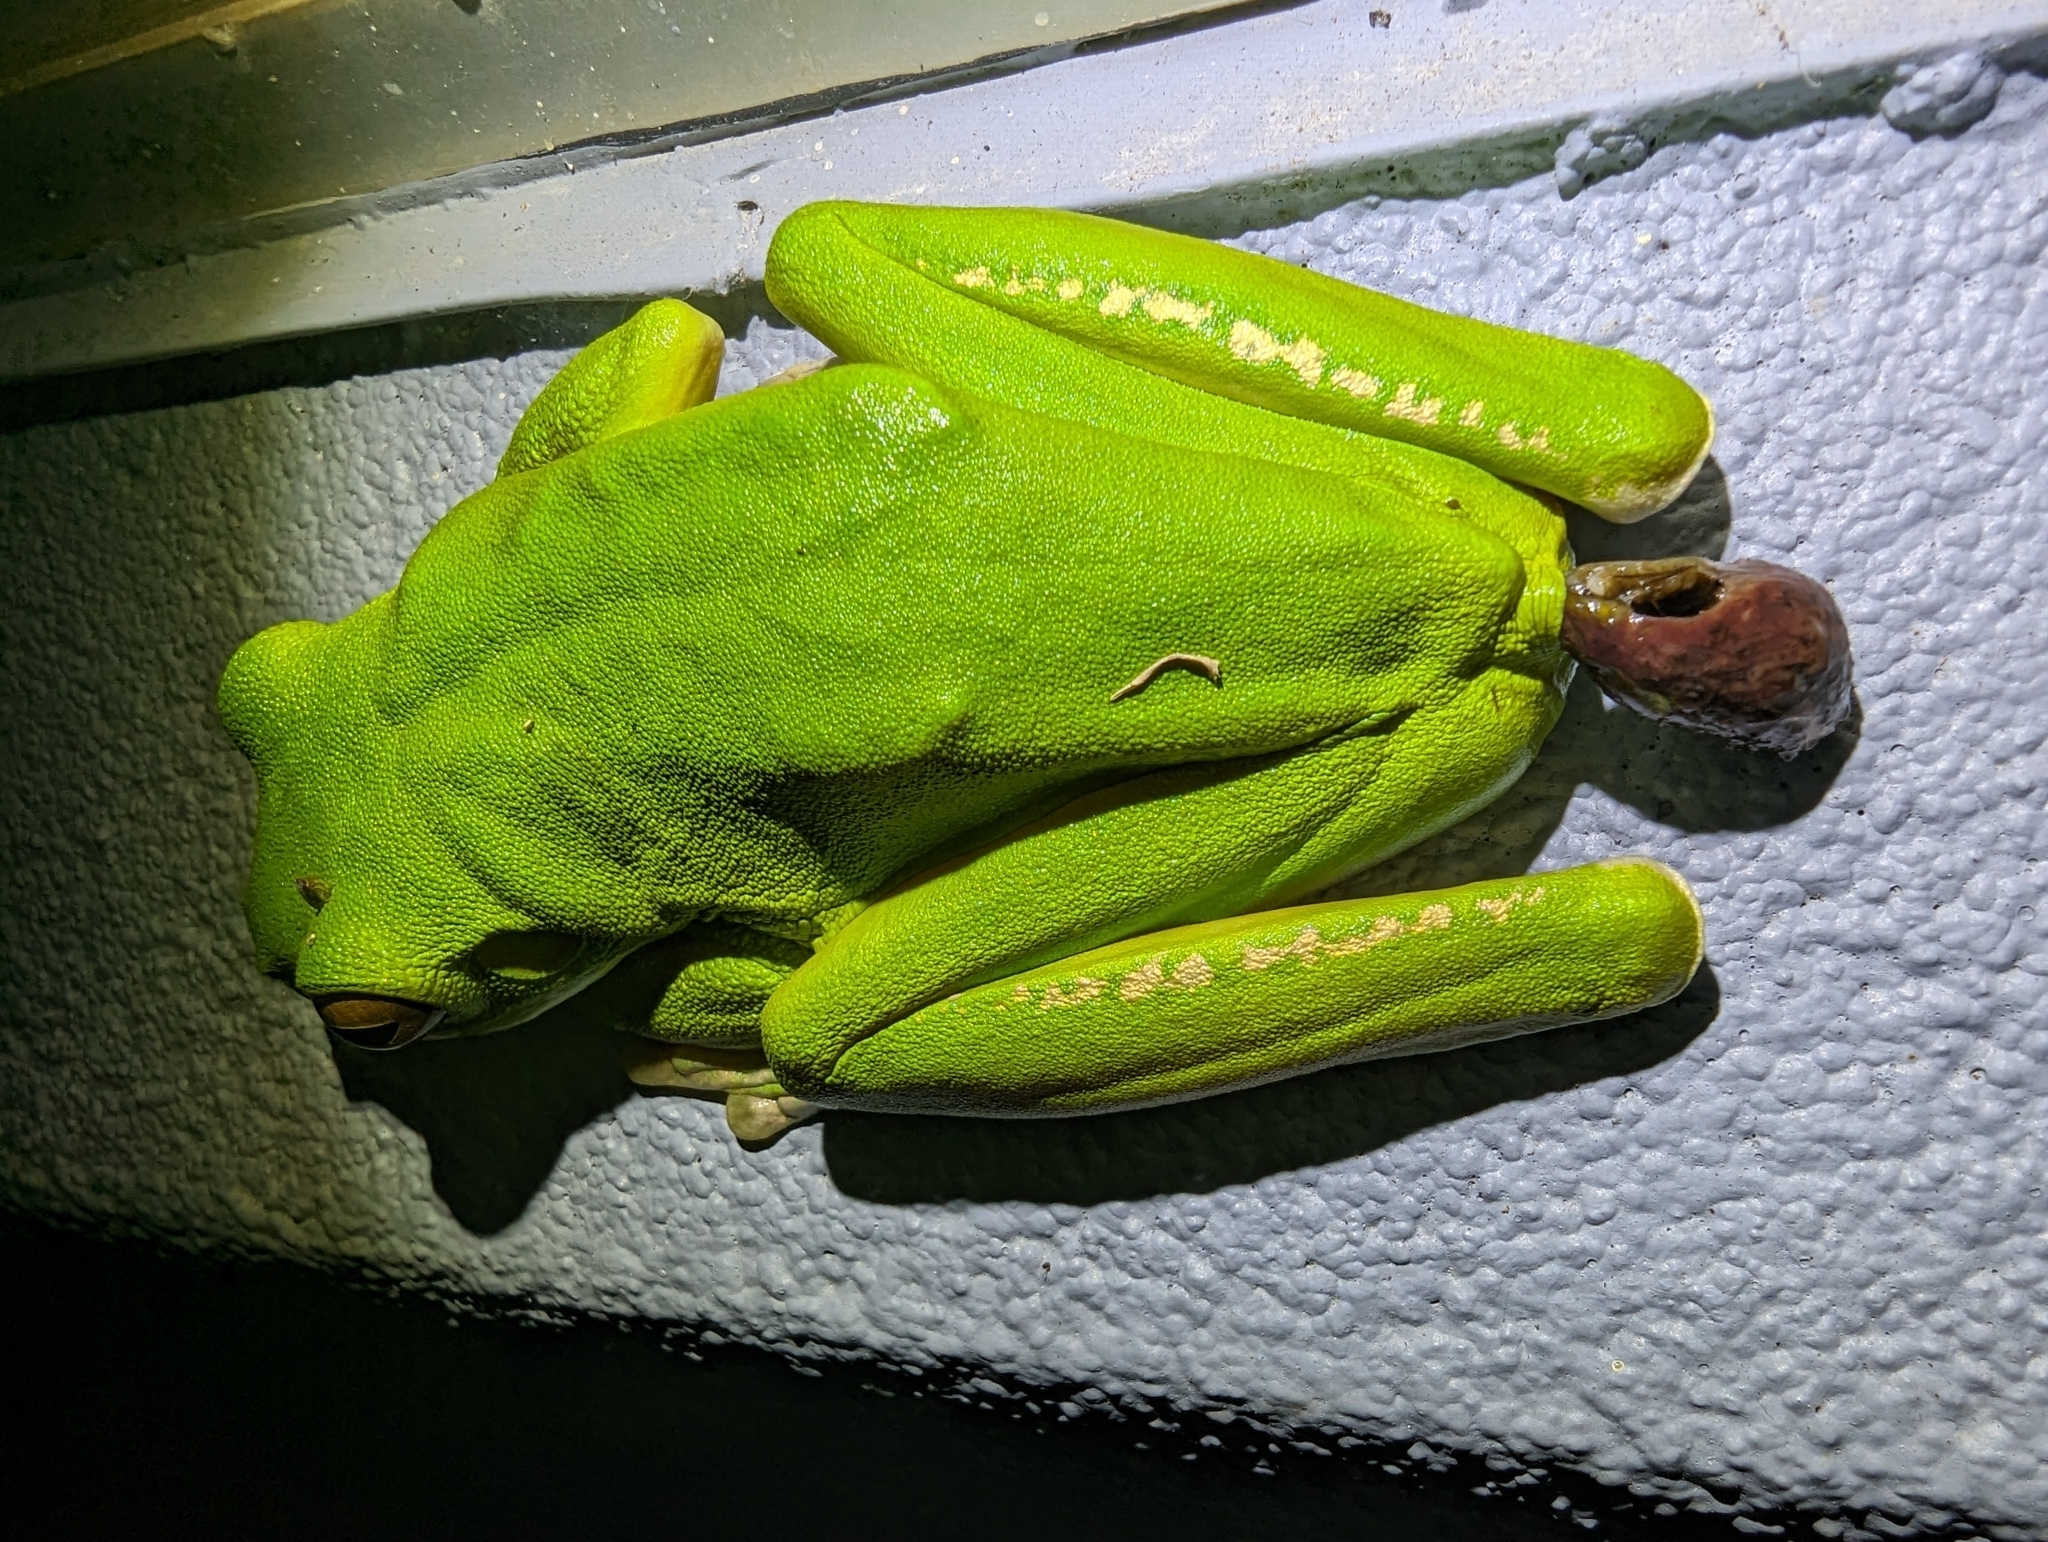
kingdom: Animalia
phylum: Chordata
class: Amphibia
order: Anura
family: Pelodryadidae
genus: Nyctimystes
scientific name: Nyctimystes infrafrenatus
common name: Australian giant treefrog
